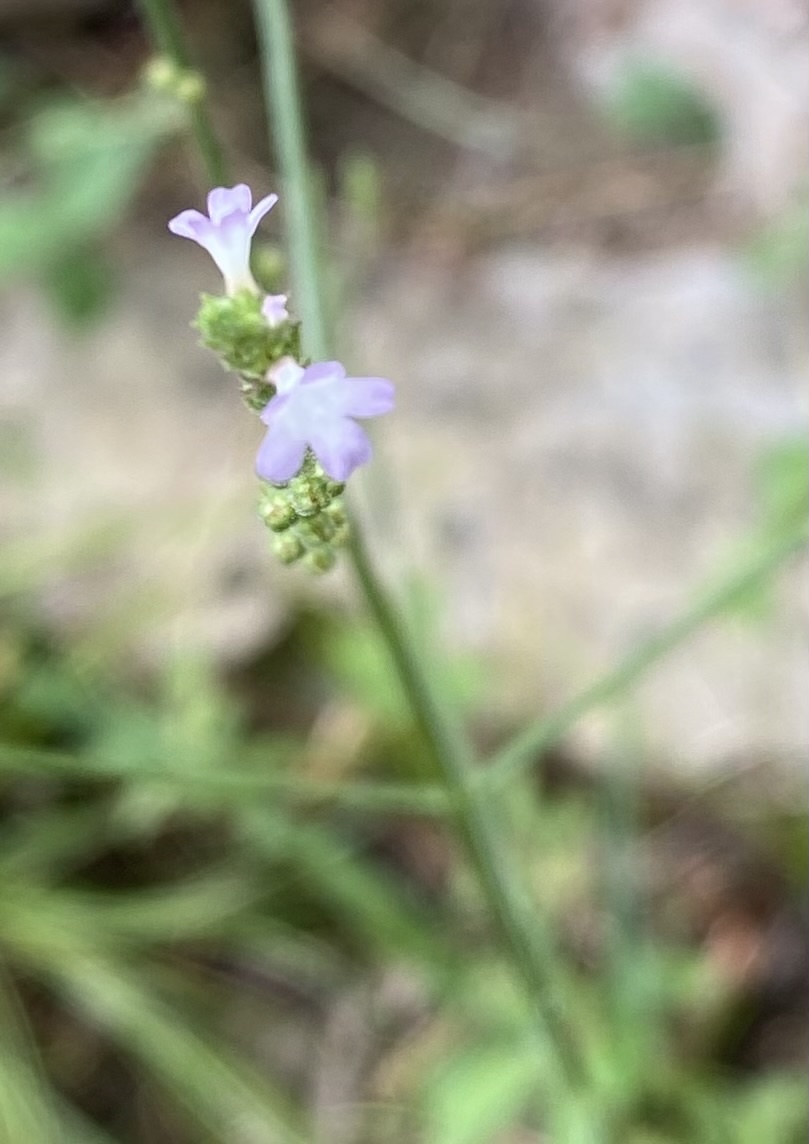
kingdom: Plantae
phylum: Tracheophyta
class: Magnoliopsida
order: Lamiales
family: Verbenaceae
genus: Verbena
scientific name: Verbena officinalis
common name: Vervain
